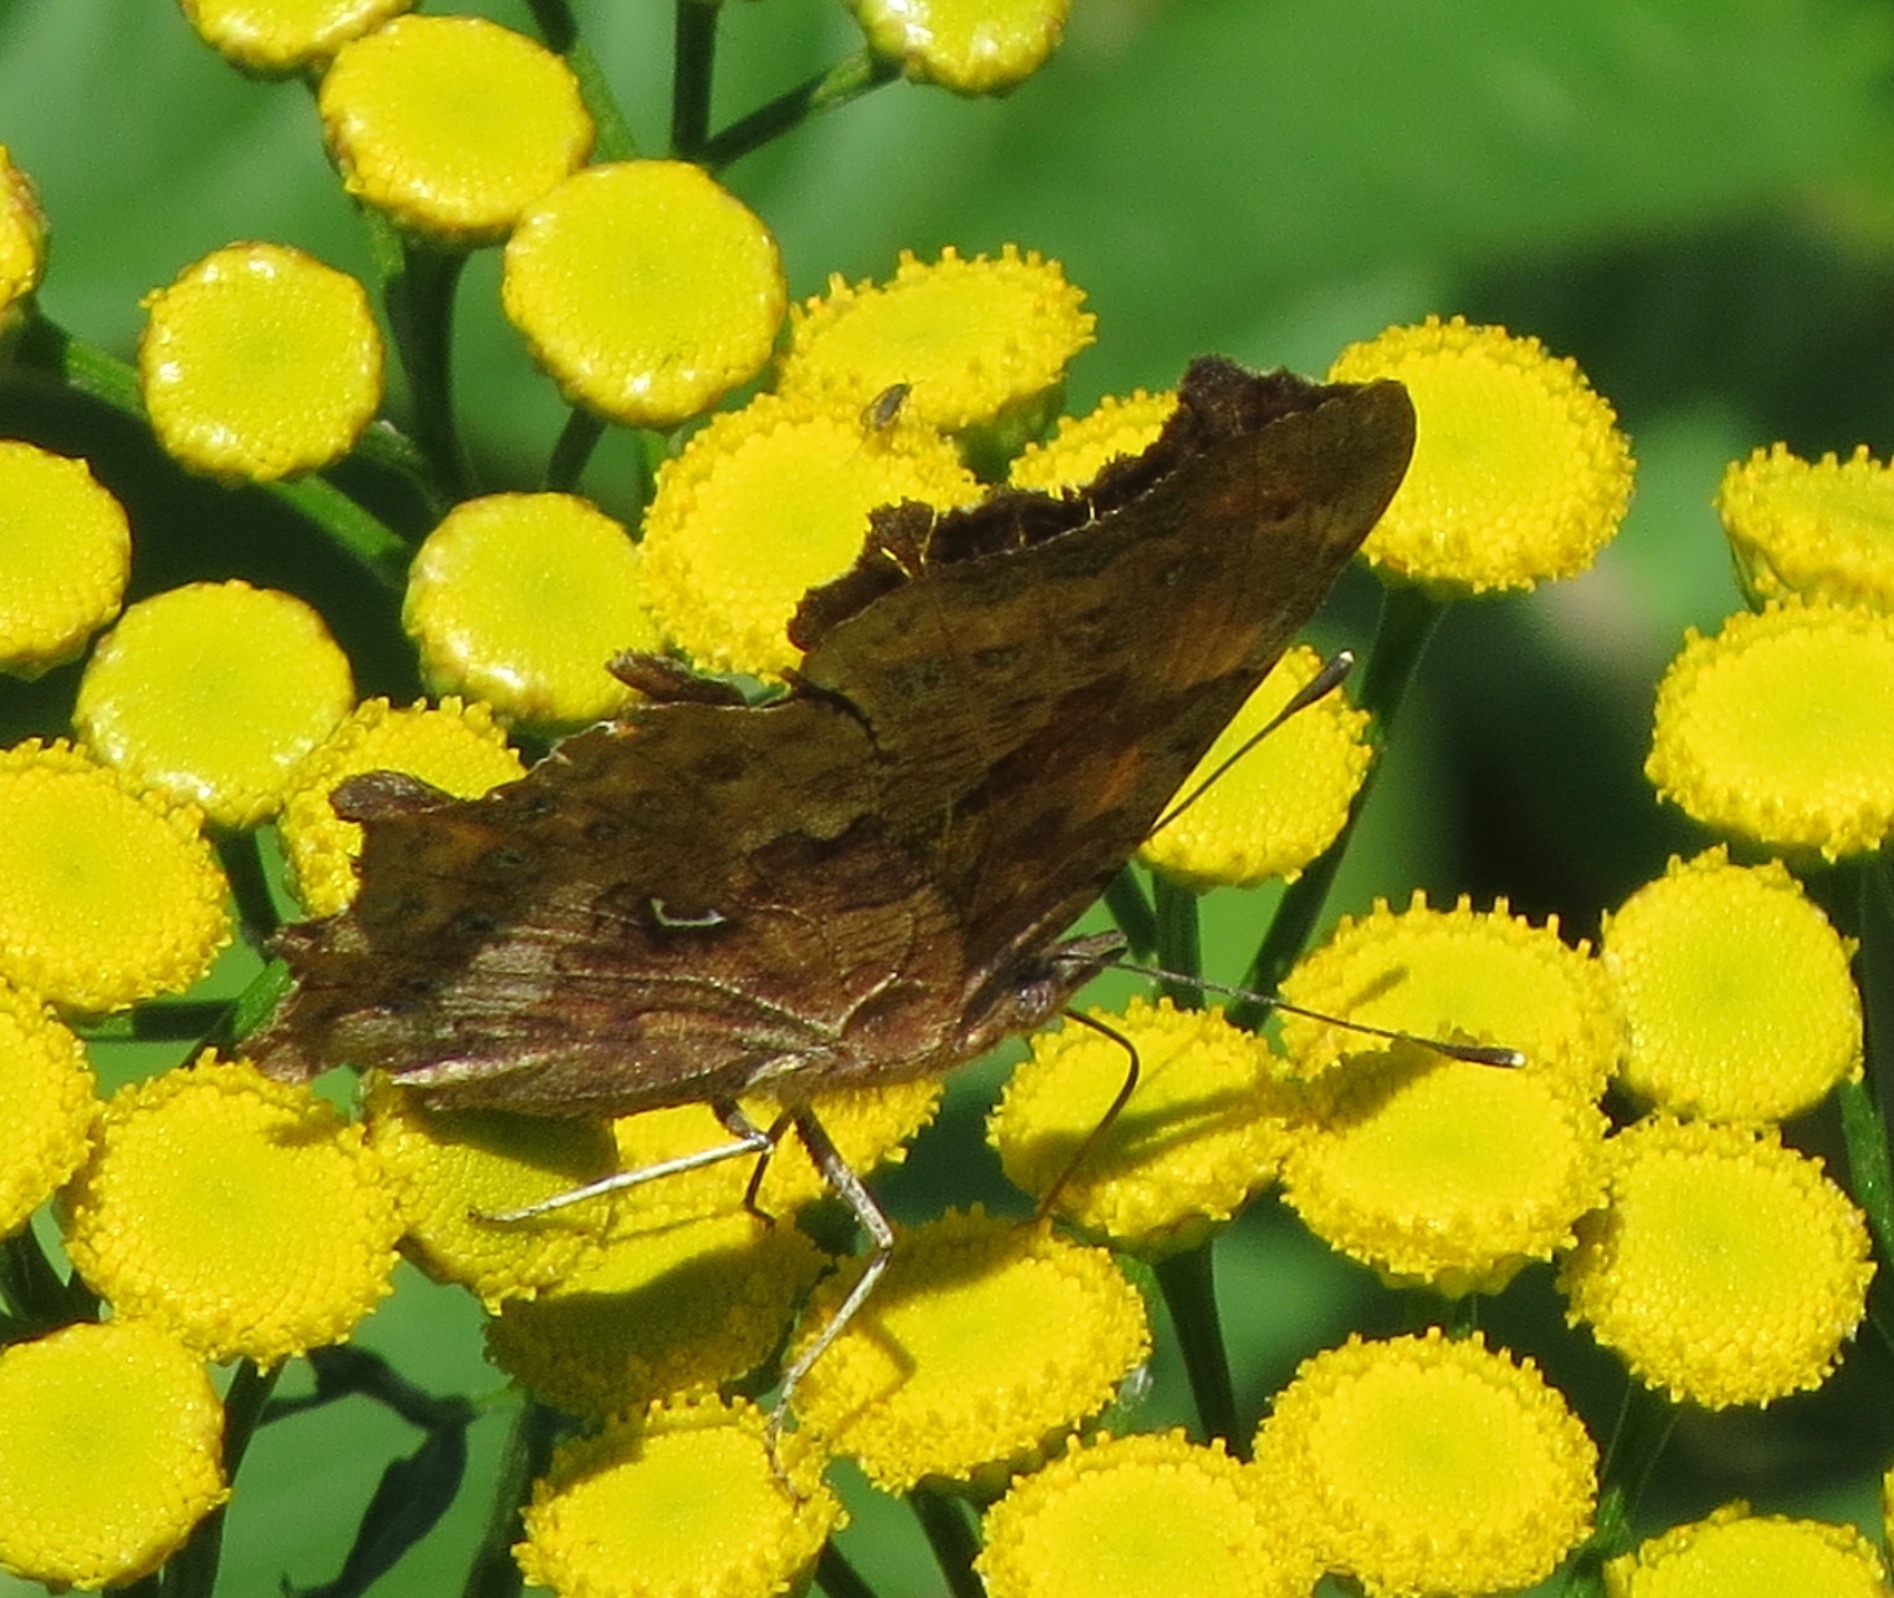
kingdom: Animalia
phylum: Arthropoda
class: Insecta
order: Lepidoptera
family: Nymphalidae
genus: Polygonia
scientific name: Polygonia c-album
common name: Comma
